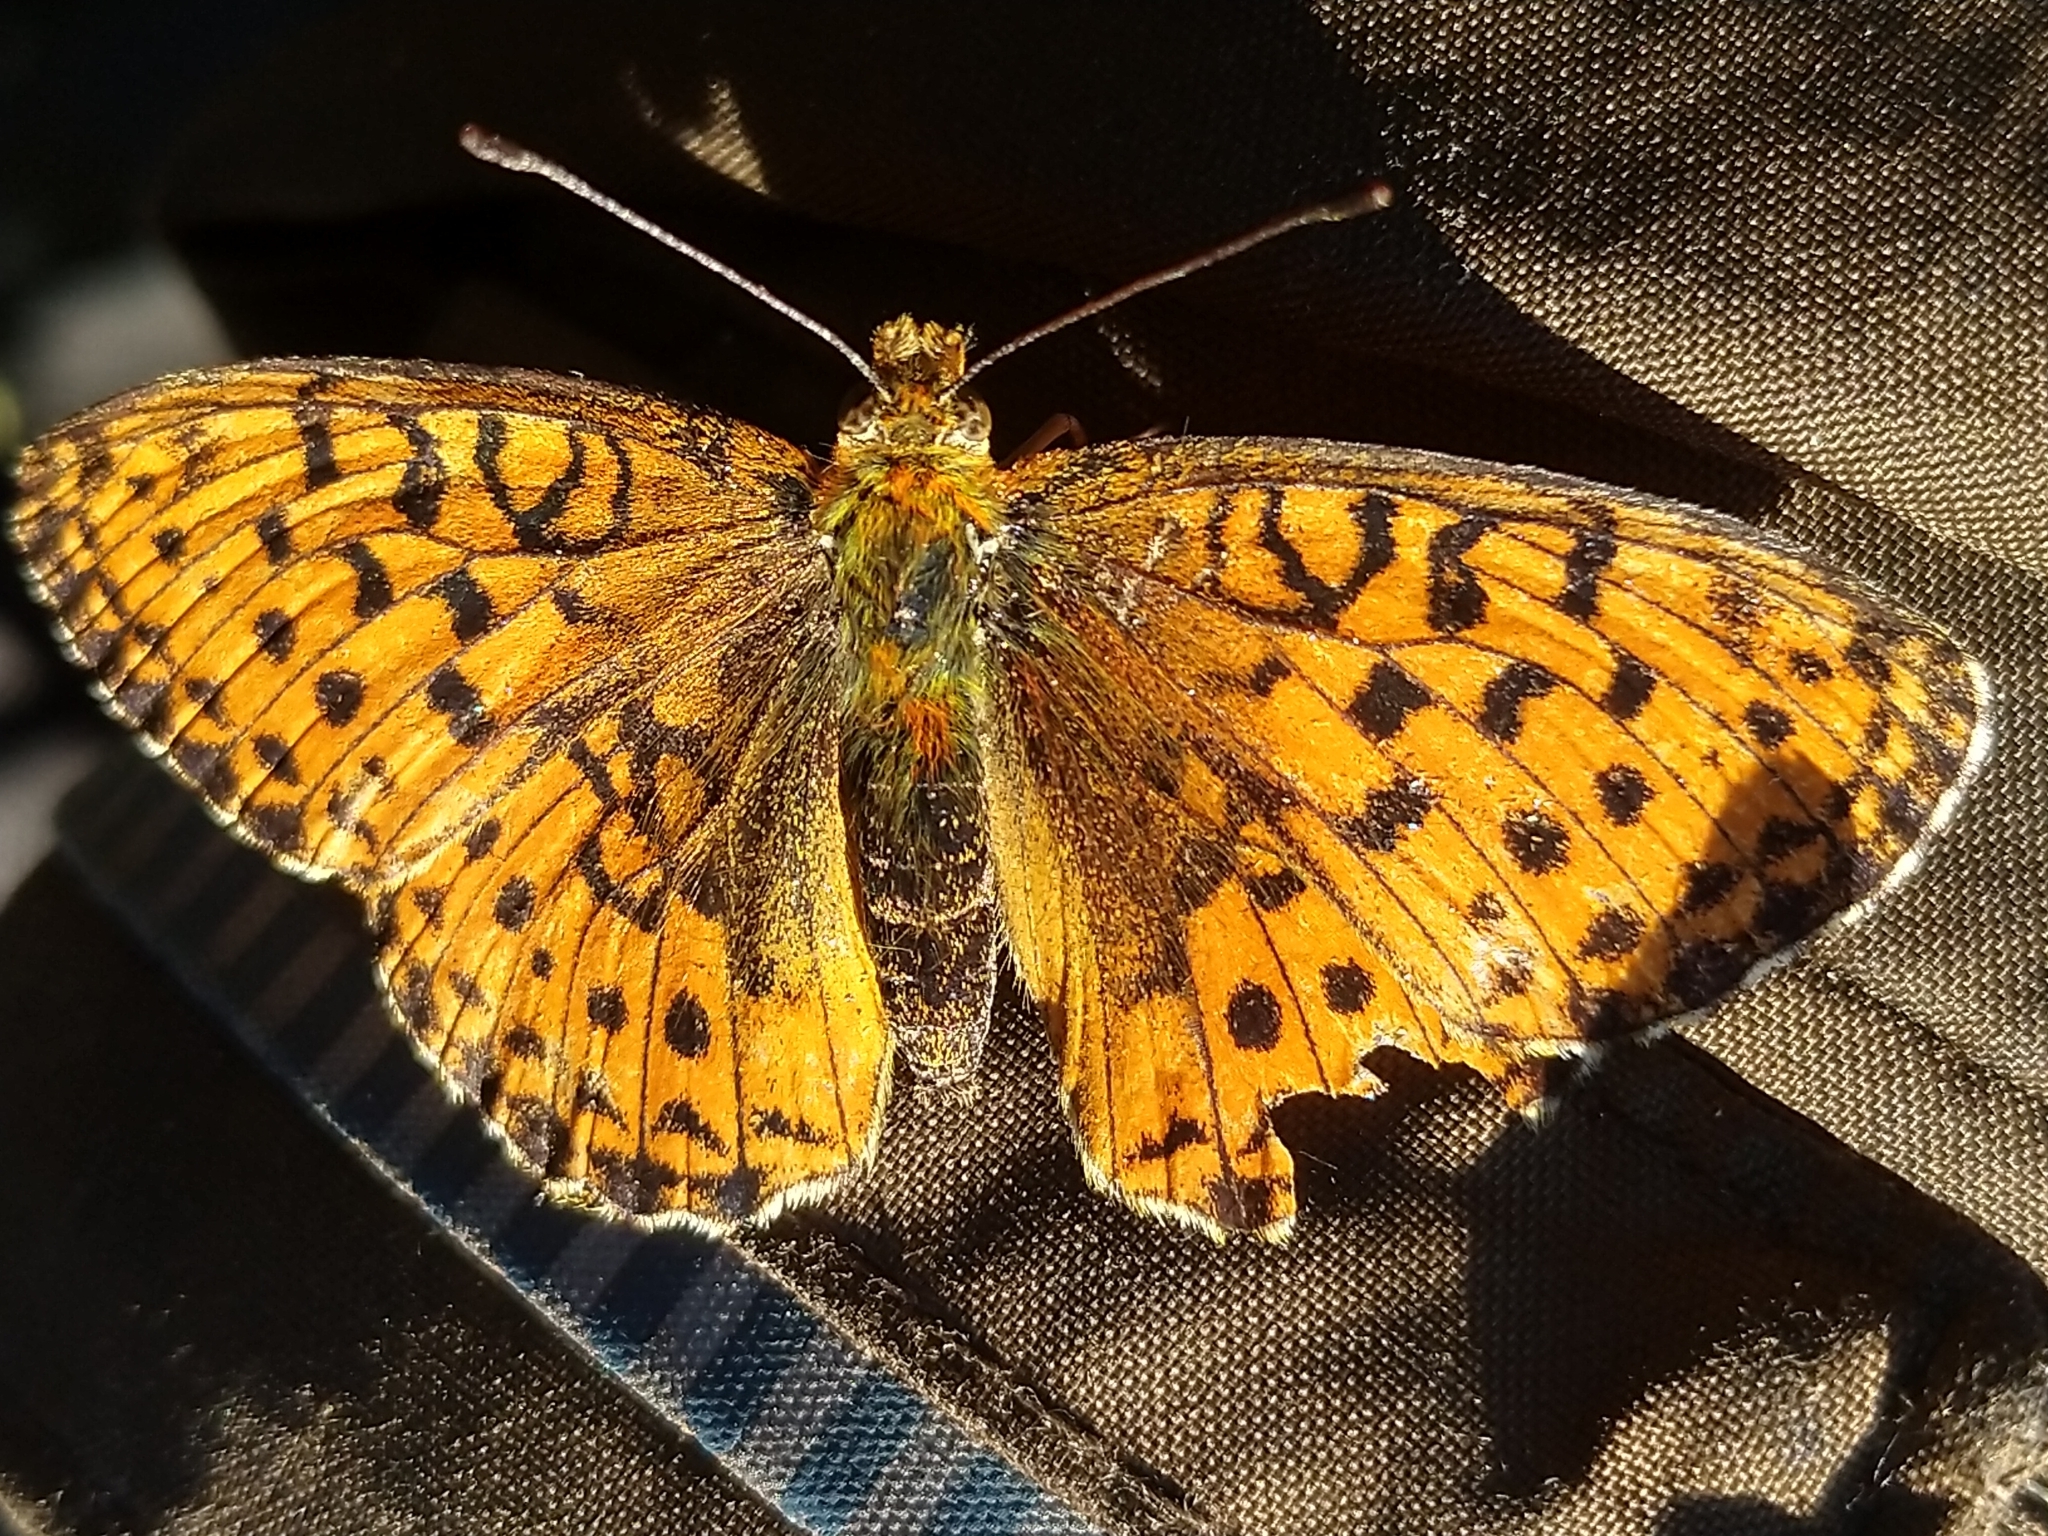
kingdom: Animalia
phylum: Arthropoda
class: Insecta
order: Lepidoptera
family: Nymphalidae
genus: Brenthis
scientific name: Brenthis ino
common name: Lesser marbled fritillary
